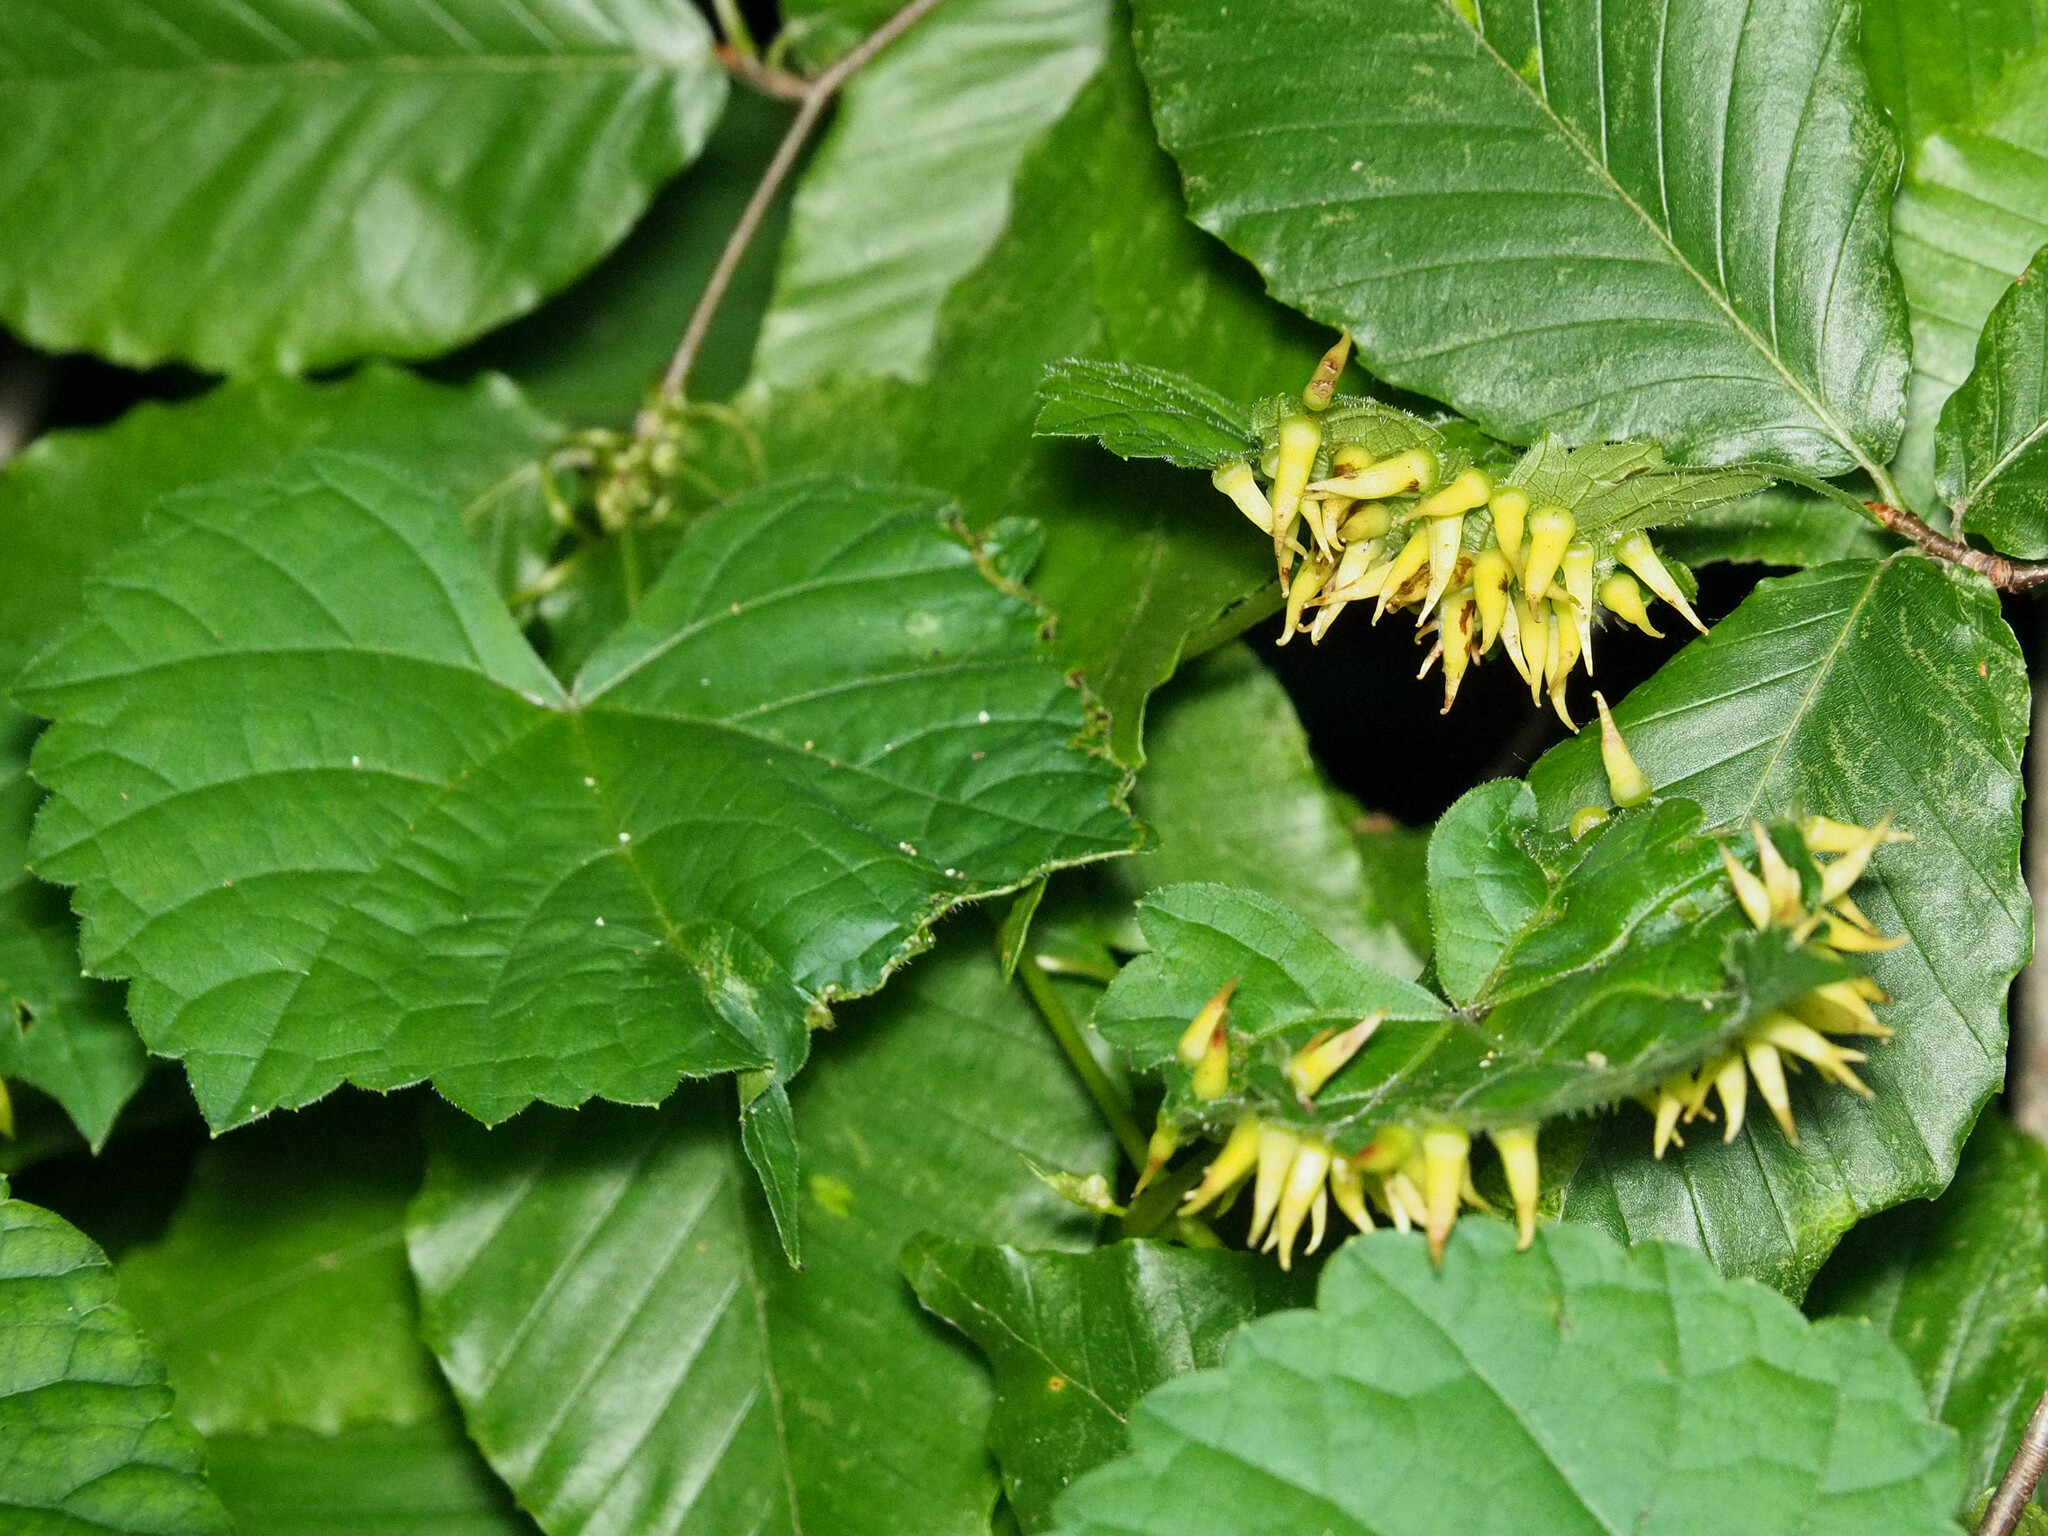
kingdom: Animalia
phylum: Arthropoda
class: Insecta
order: Diptera
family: Cecidomyiidae
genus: Ampelomyia
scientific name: Ampelomyia viticola
